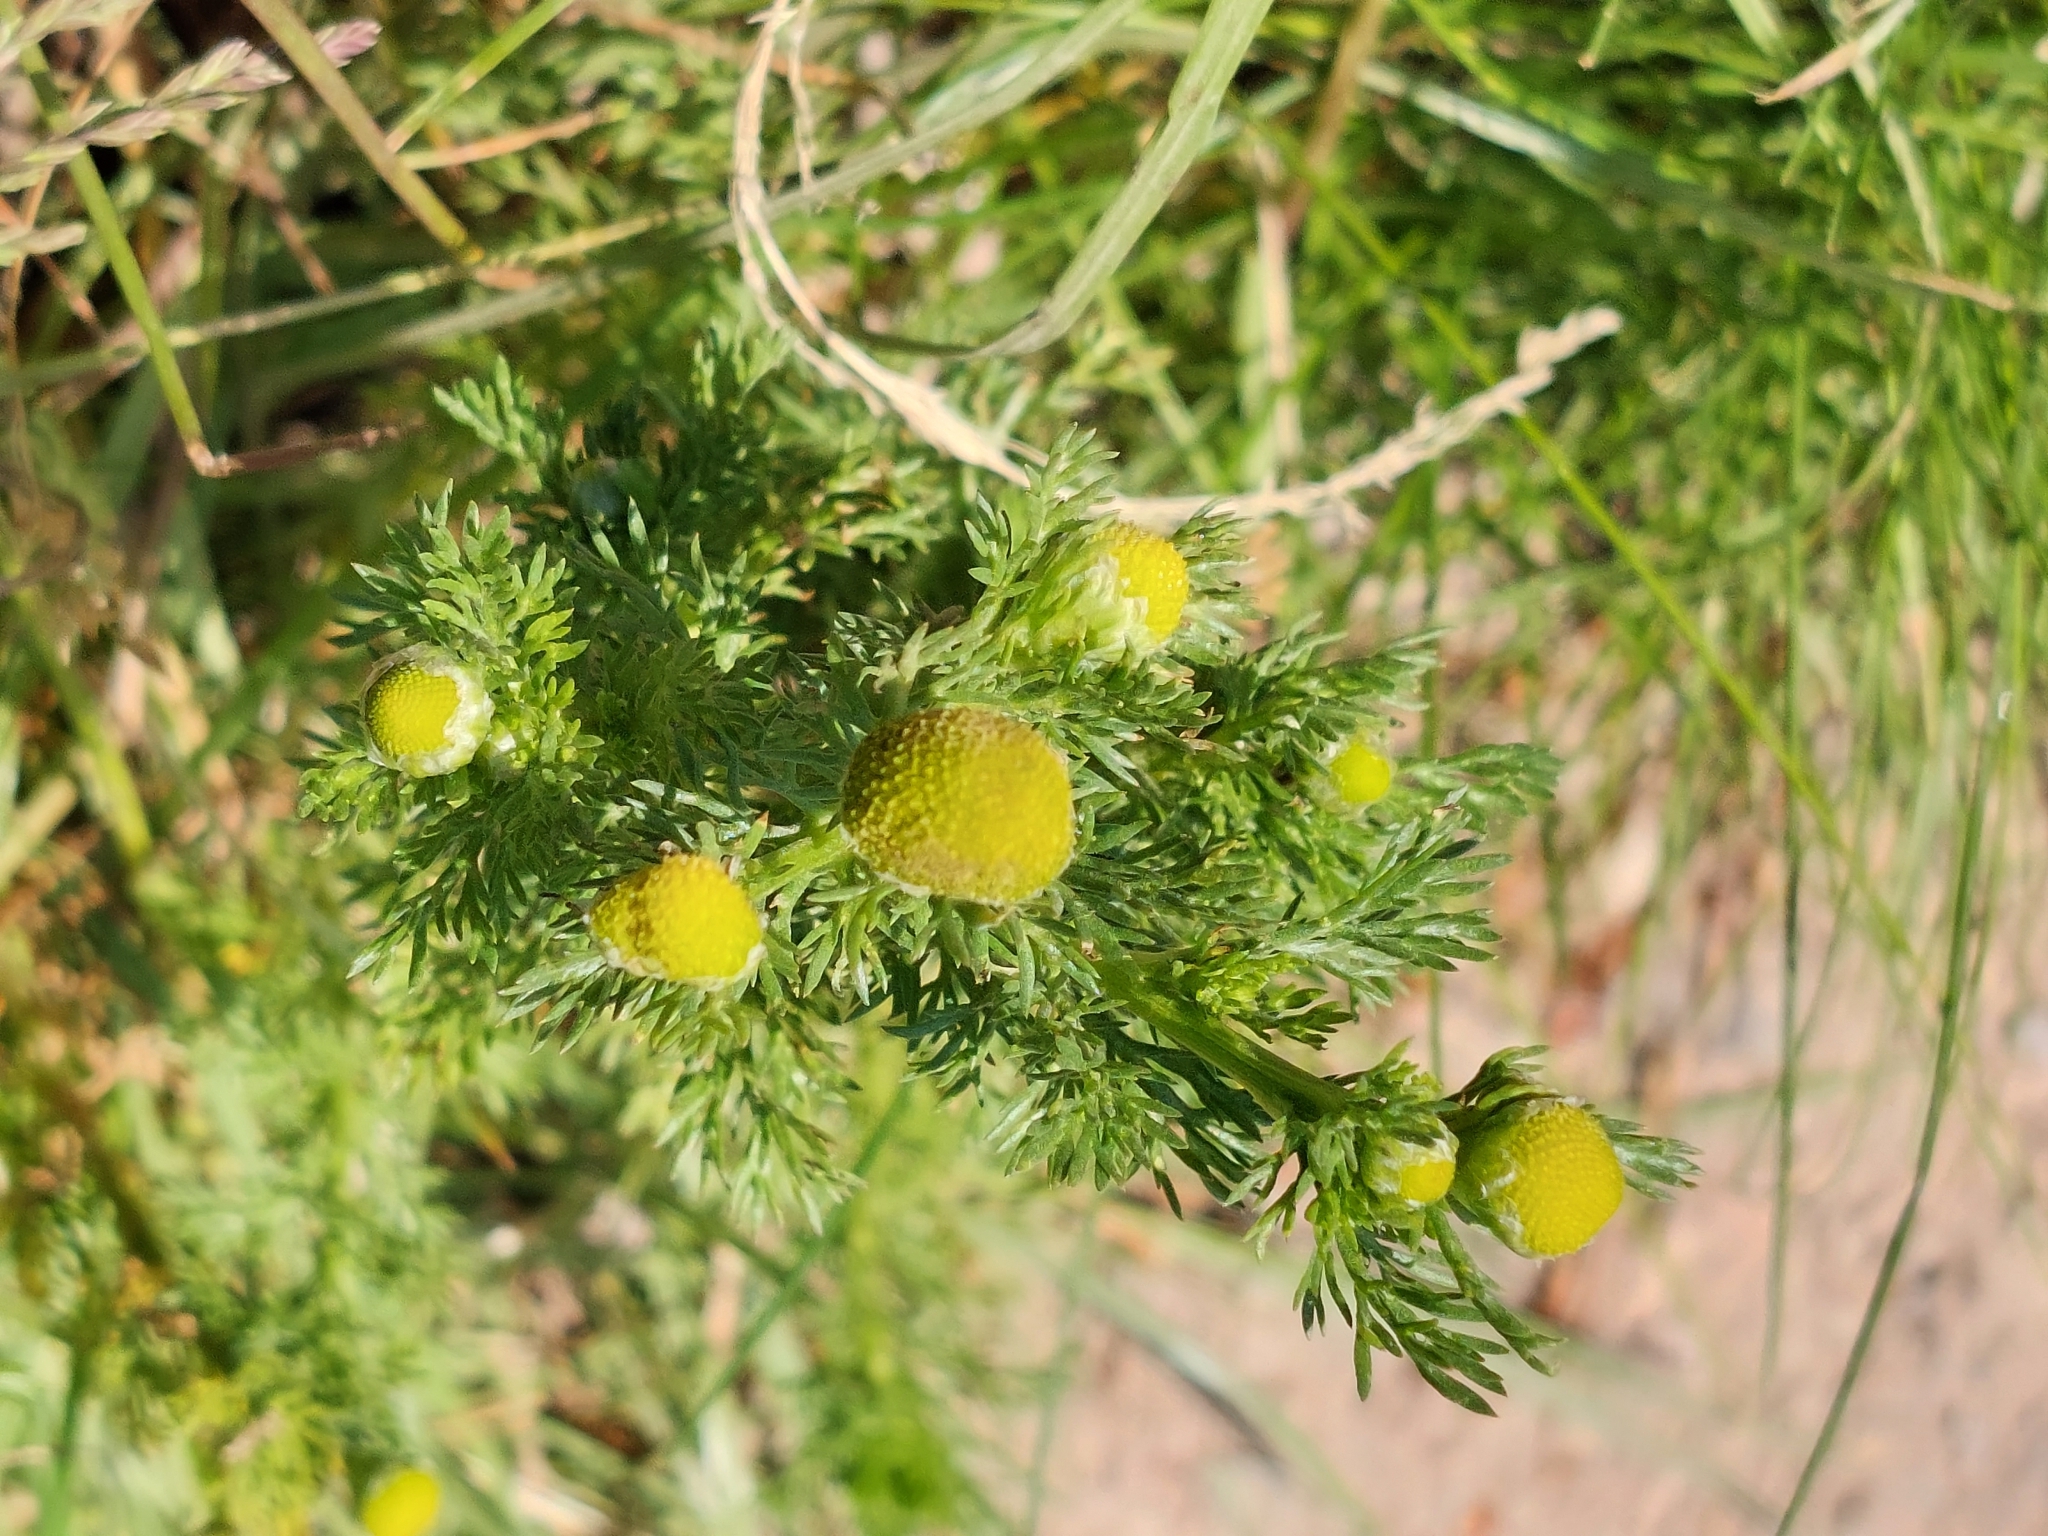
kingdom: Plantae
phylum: Tracheophyta
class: Magnoliopsida
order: Asterales
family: Asteraceae
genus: Matricaria
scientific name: Matricaria discoidea
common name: Disc mayweed
